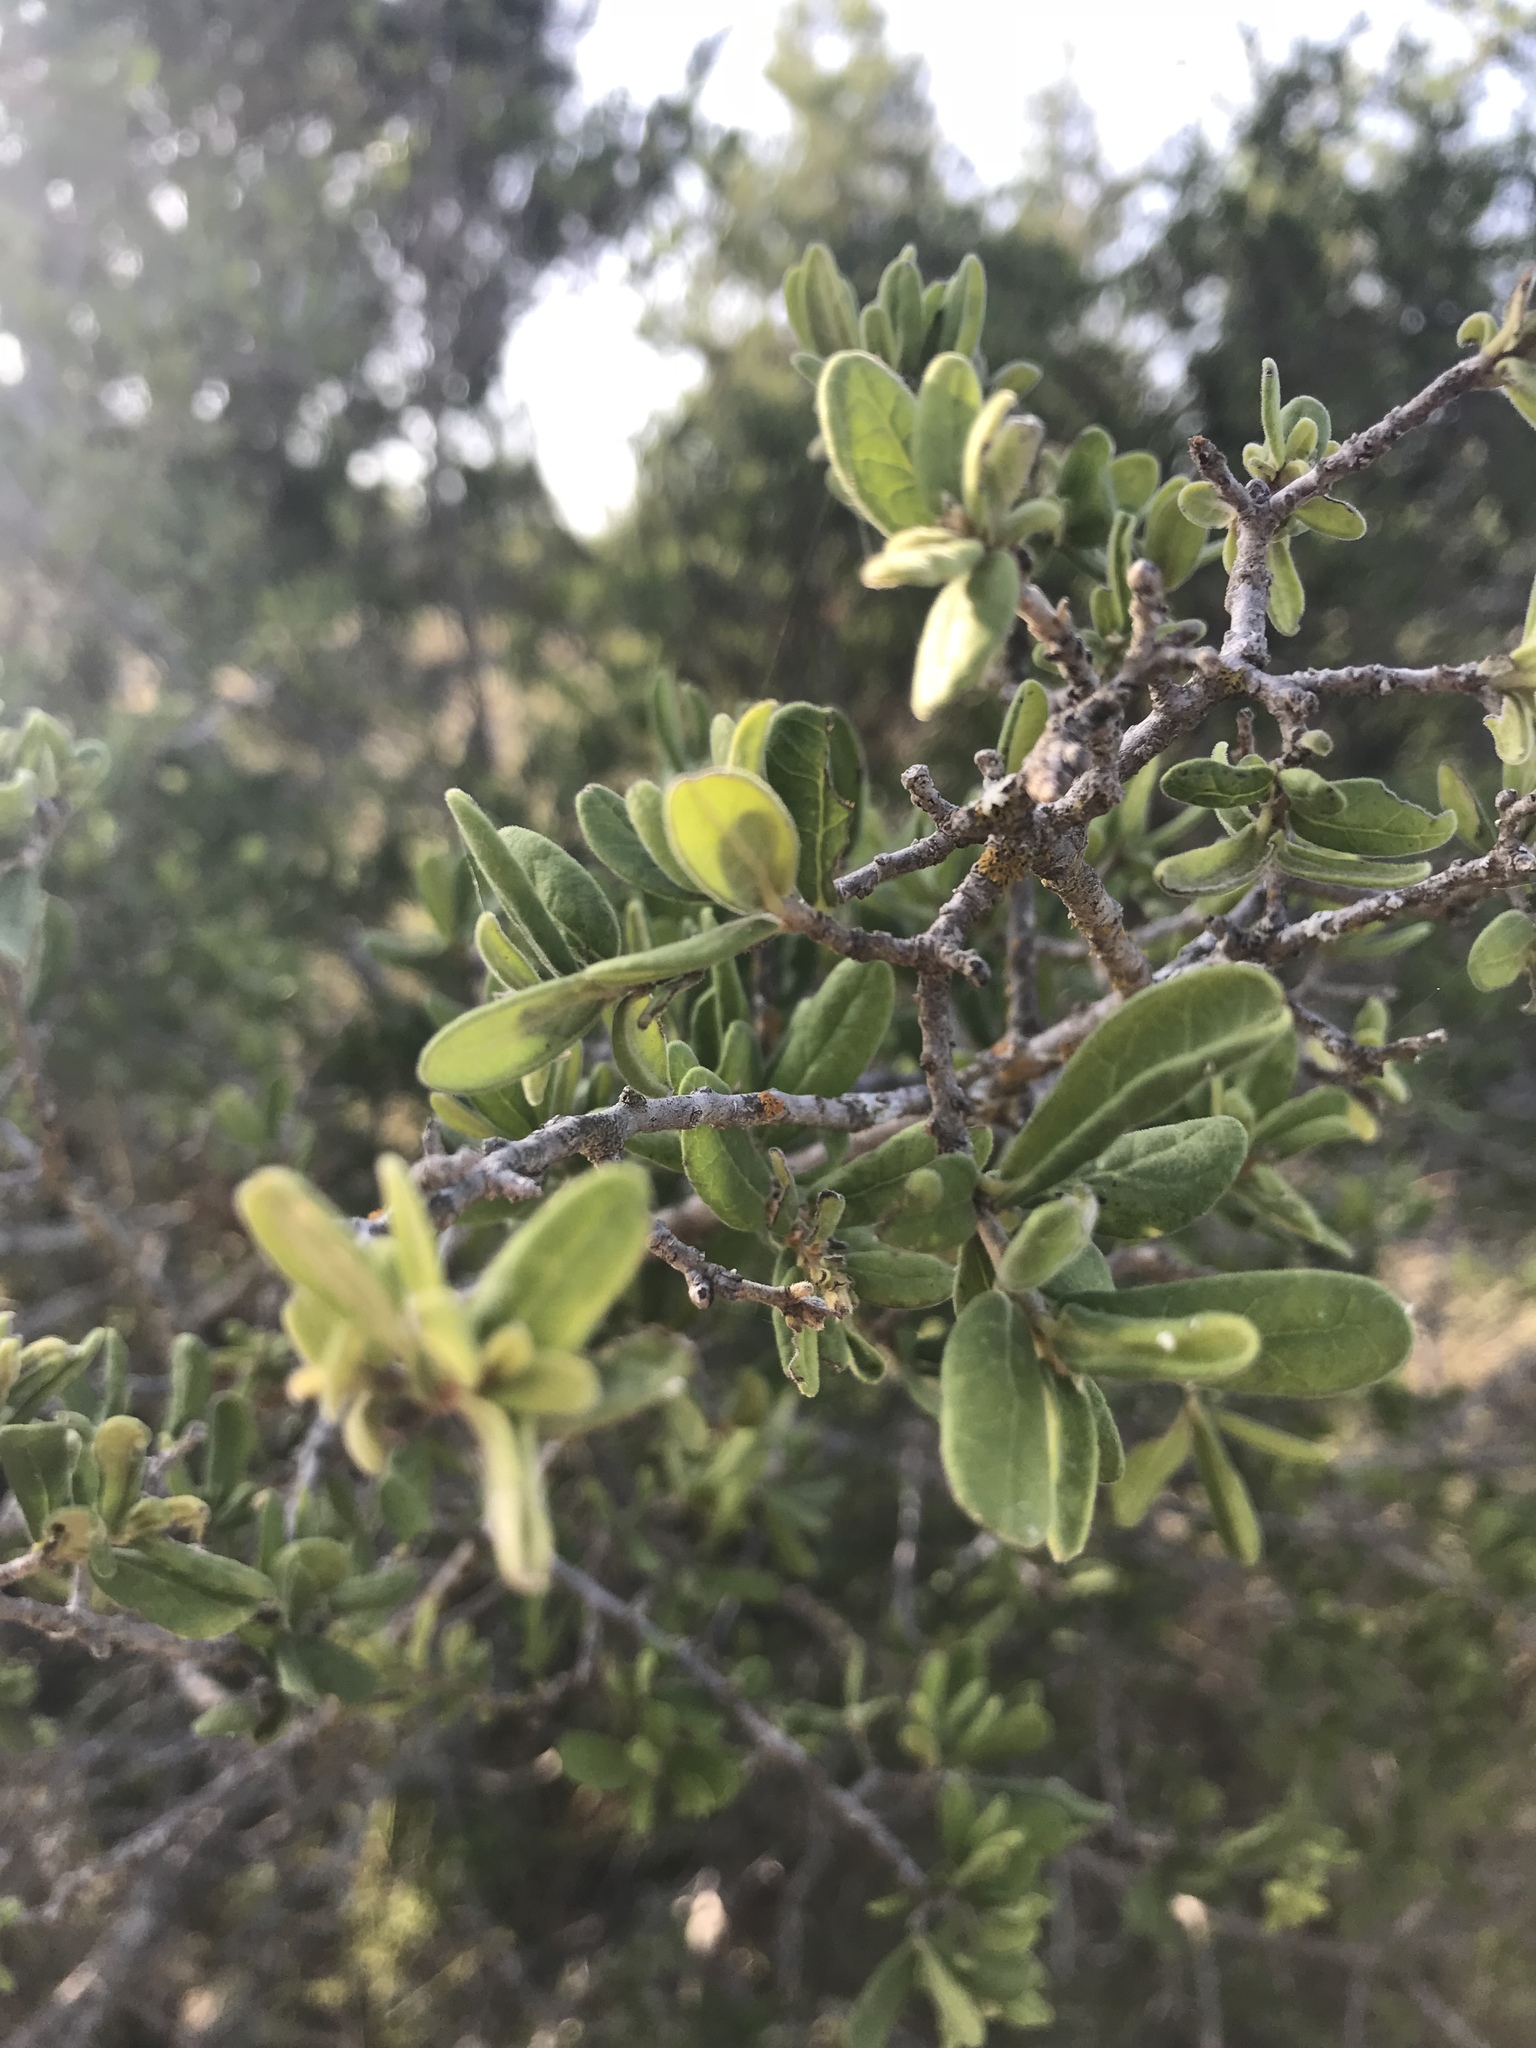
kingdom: Plantae
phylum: Tracheophyta
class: Magnoliopsida
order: Ericales
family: Ebenaceae
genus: Diospyros
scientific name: Diospyros texana
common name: Texas persimmon
